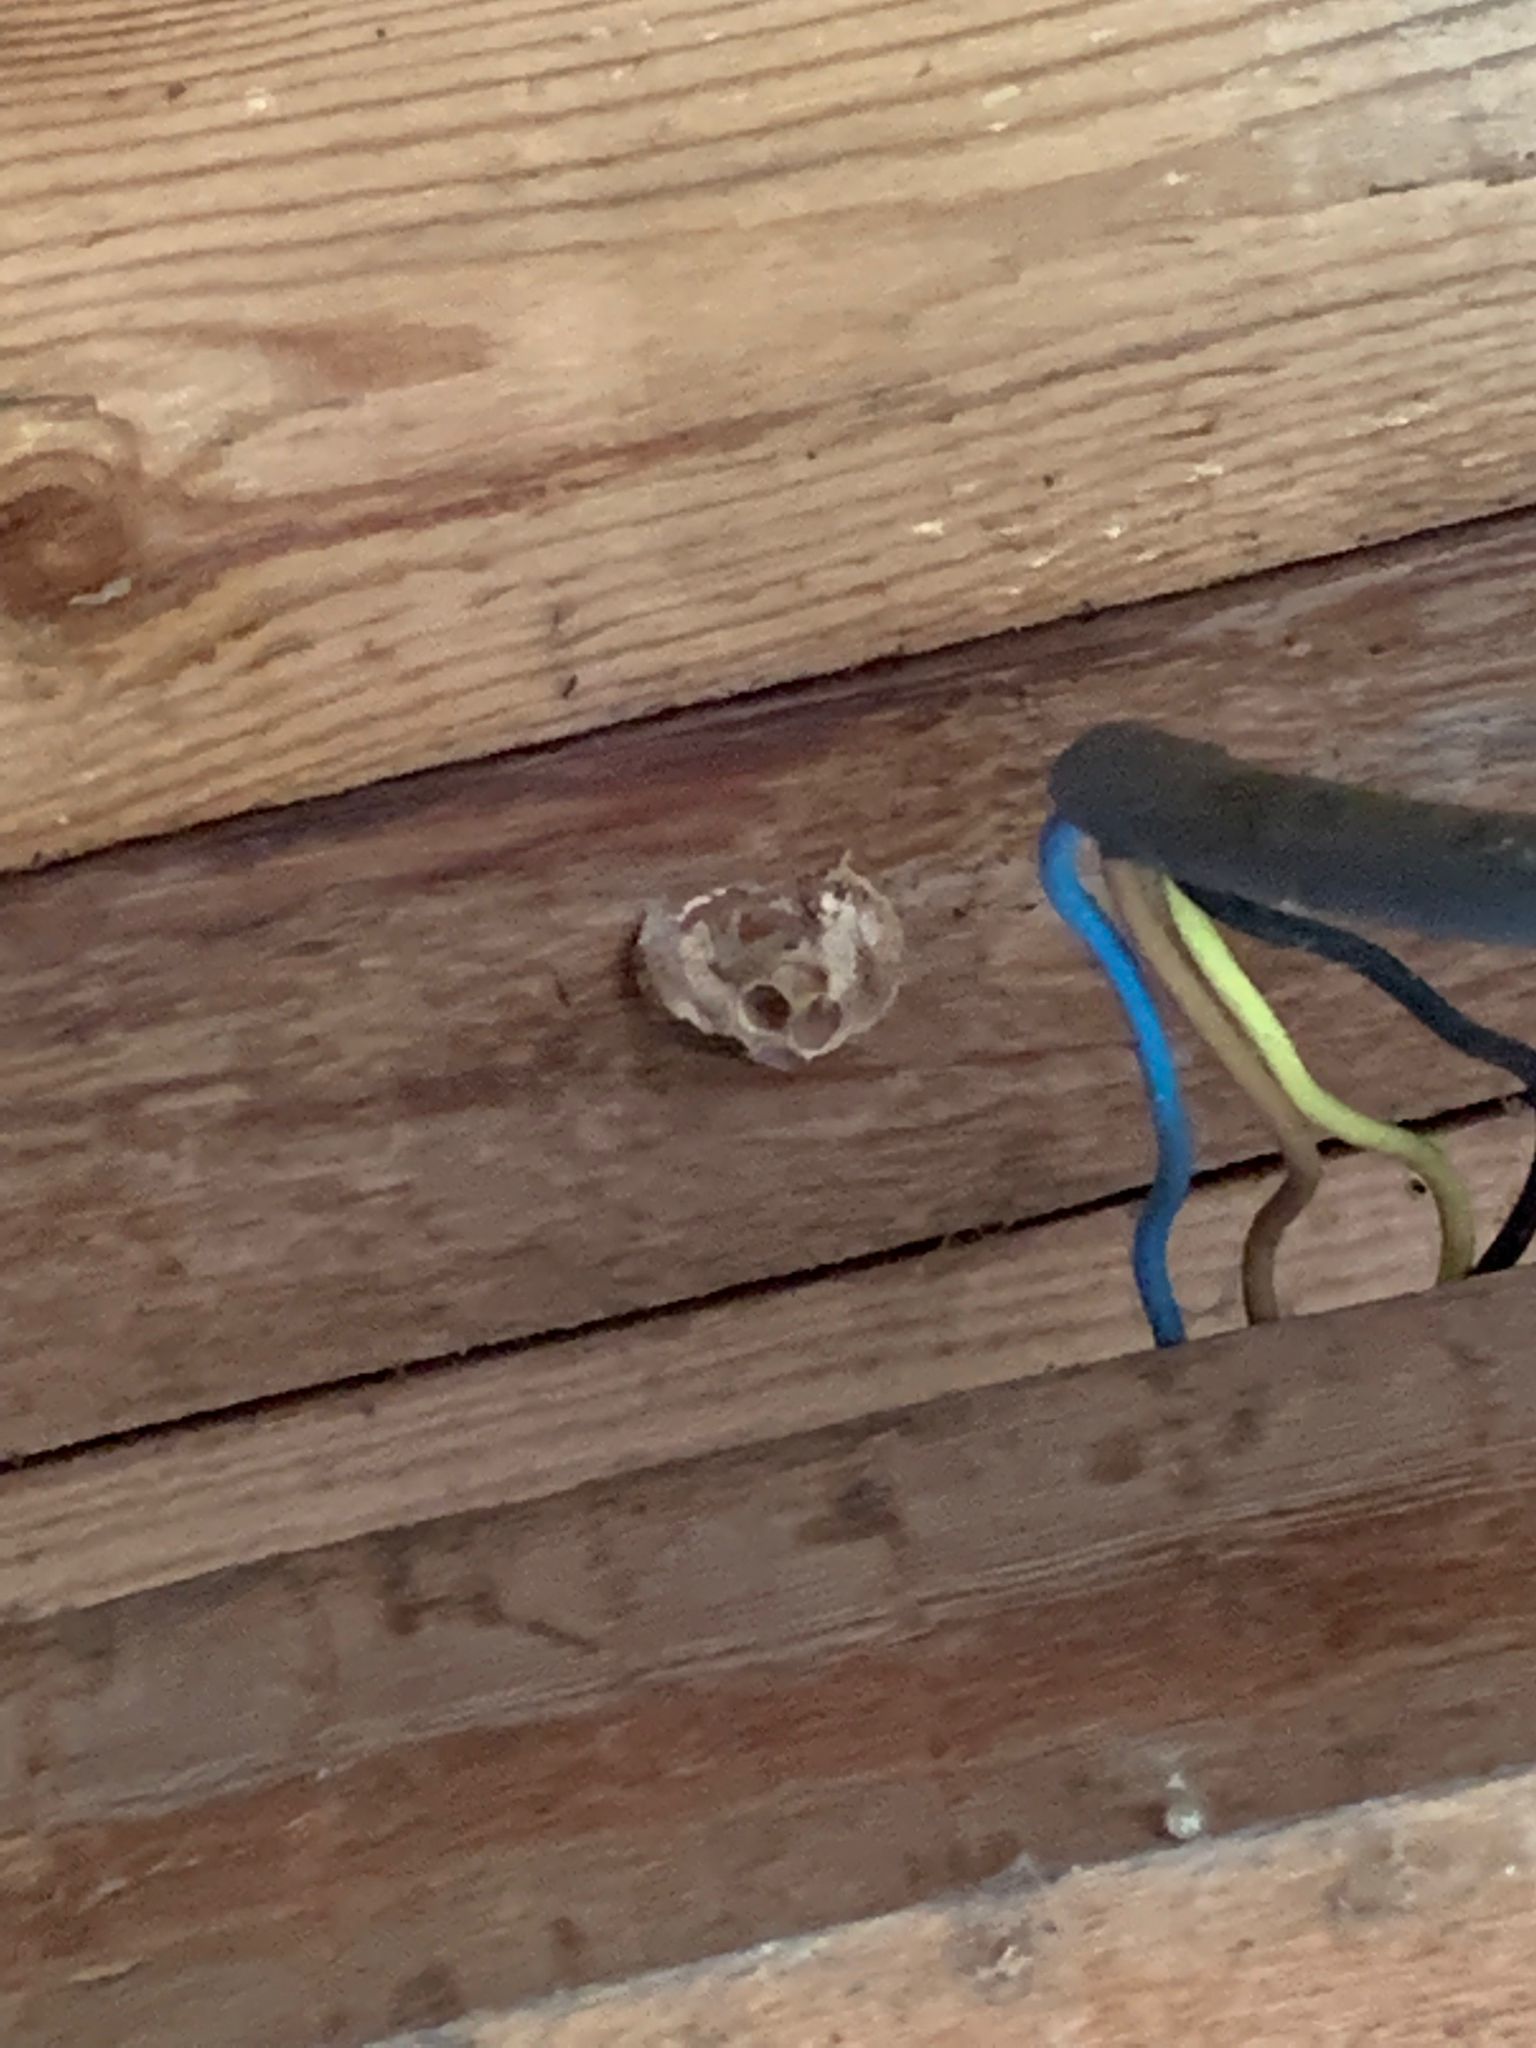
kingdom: Animalia
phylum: Arthropoda
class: Insecta
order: Hymenoptera
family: Vespidae
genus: Vespa
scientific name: Vespa crabro
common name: Hornet
